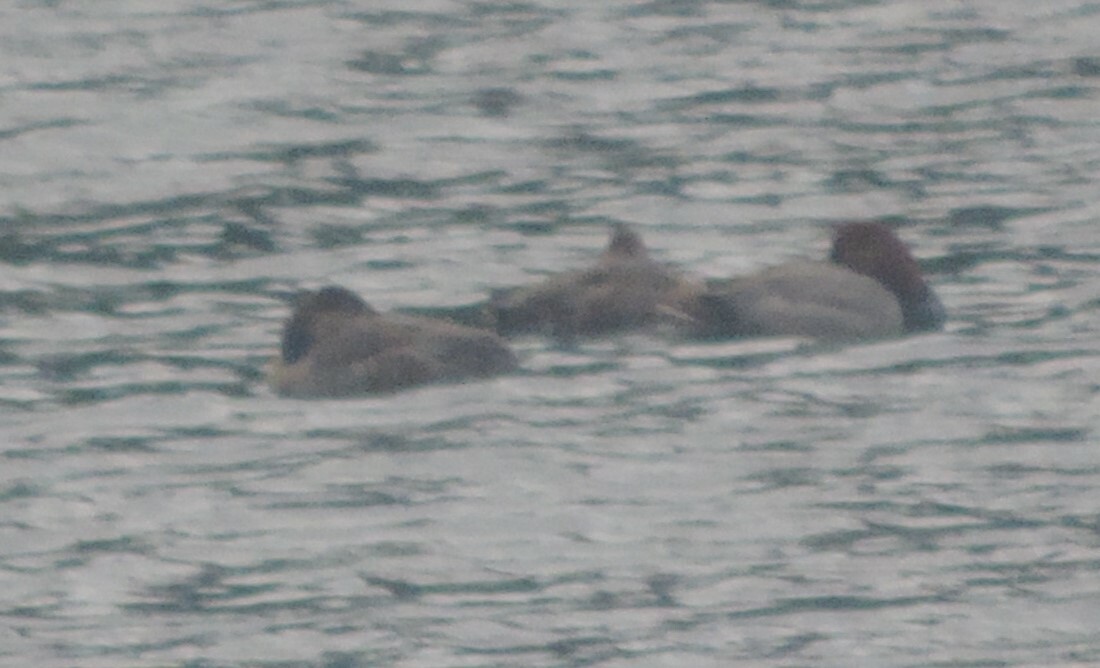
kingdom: Animalia
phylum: Chordata
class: Aves
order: Anseriformes
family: Anatidae
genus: Aythya
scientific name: Aythya americana
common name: Redhead
